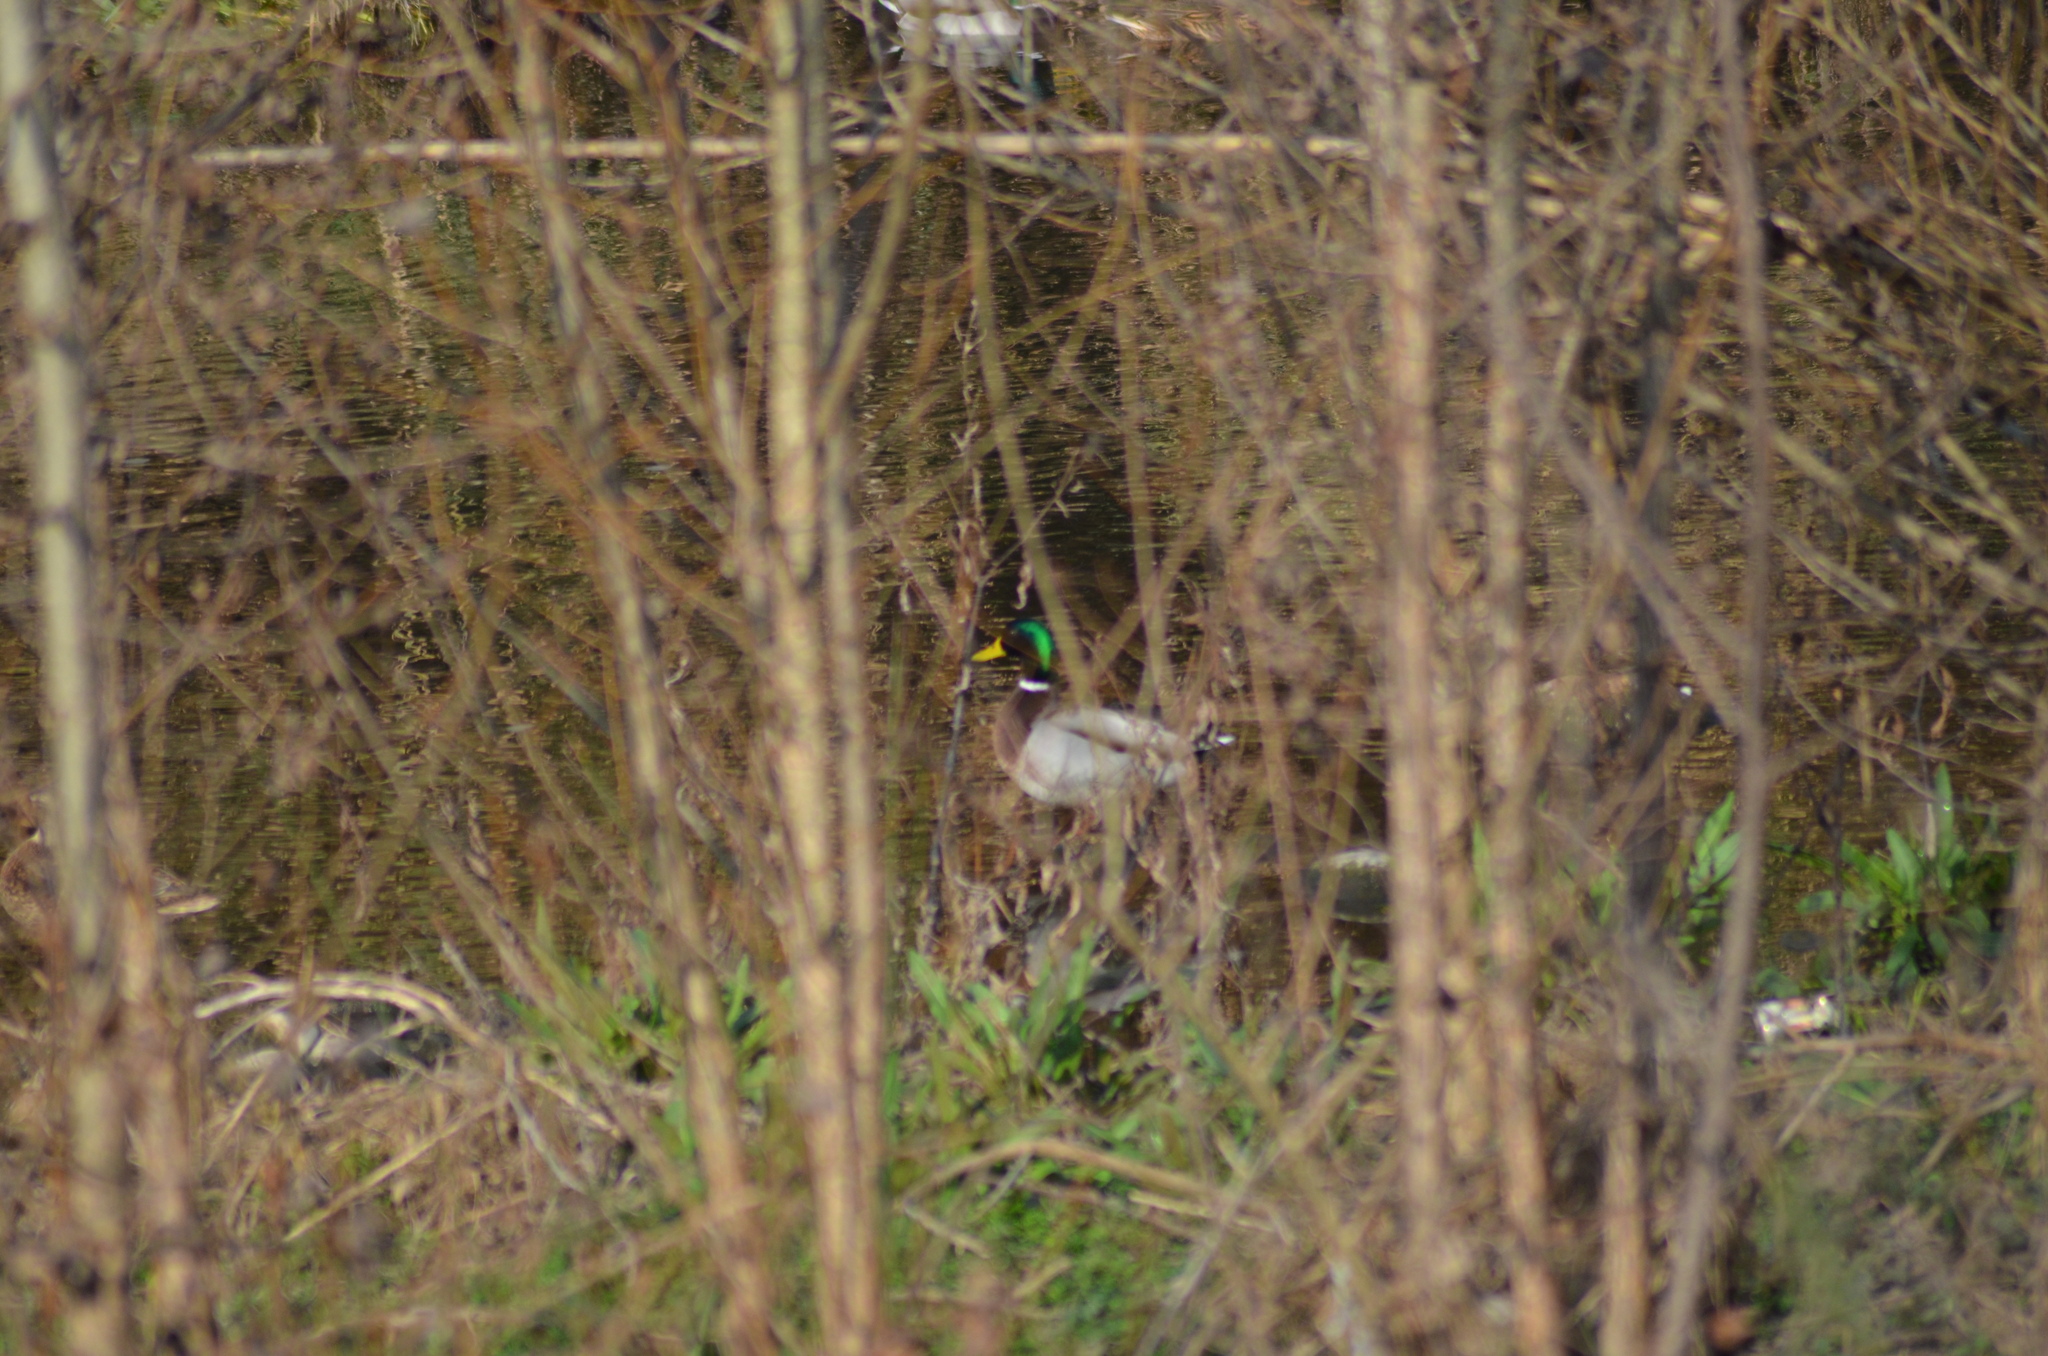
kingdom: Animalia
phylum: Chordata
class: Aves
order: Anseriformes
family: Anatidae
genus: Anas
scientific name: Anas platyrhynchos
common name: Mallard
